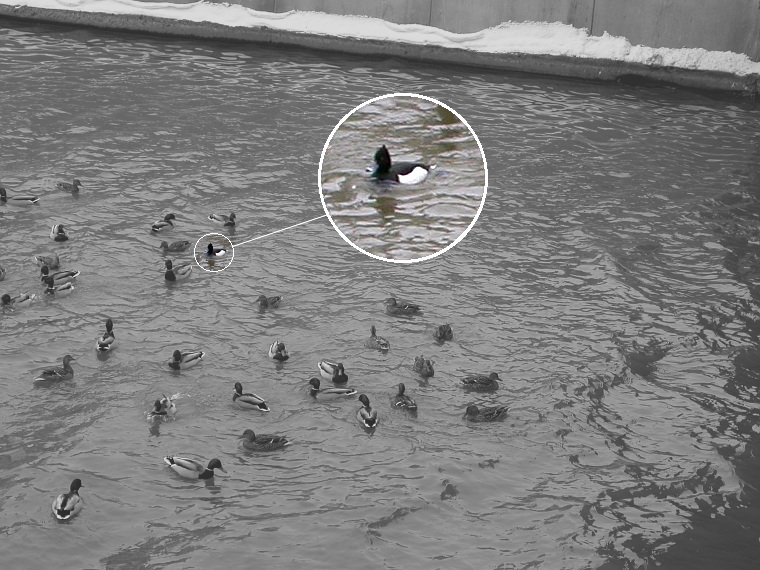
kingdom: Animalia
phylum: Chordata
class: Aves
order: Anseriformes
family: Anatidae
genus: Aythya
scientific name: Aythya fuligula
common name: Tufted duck
